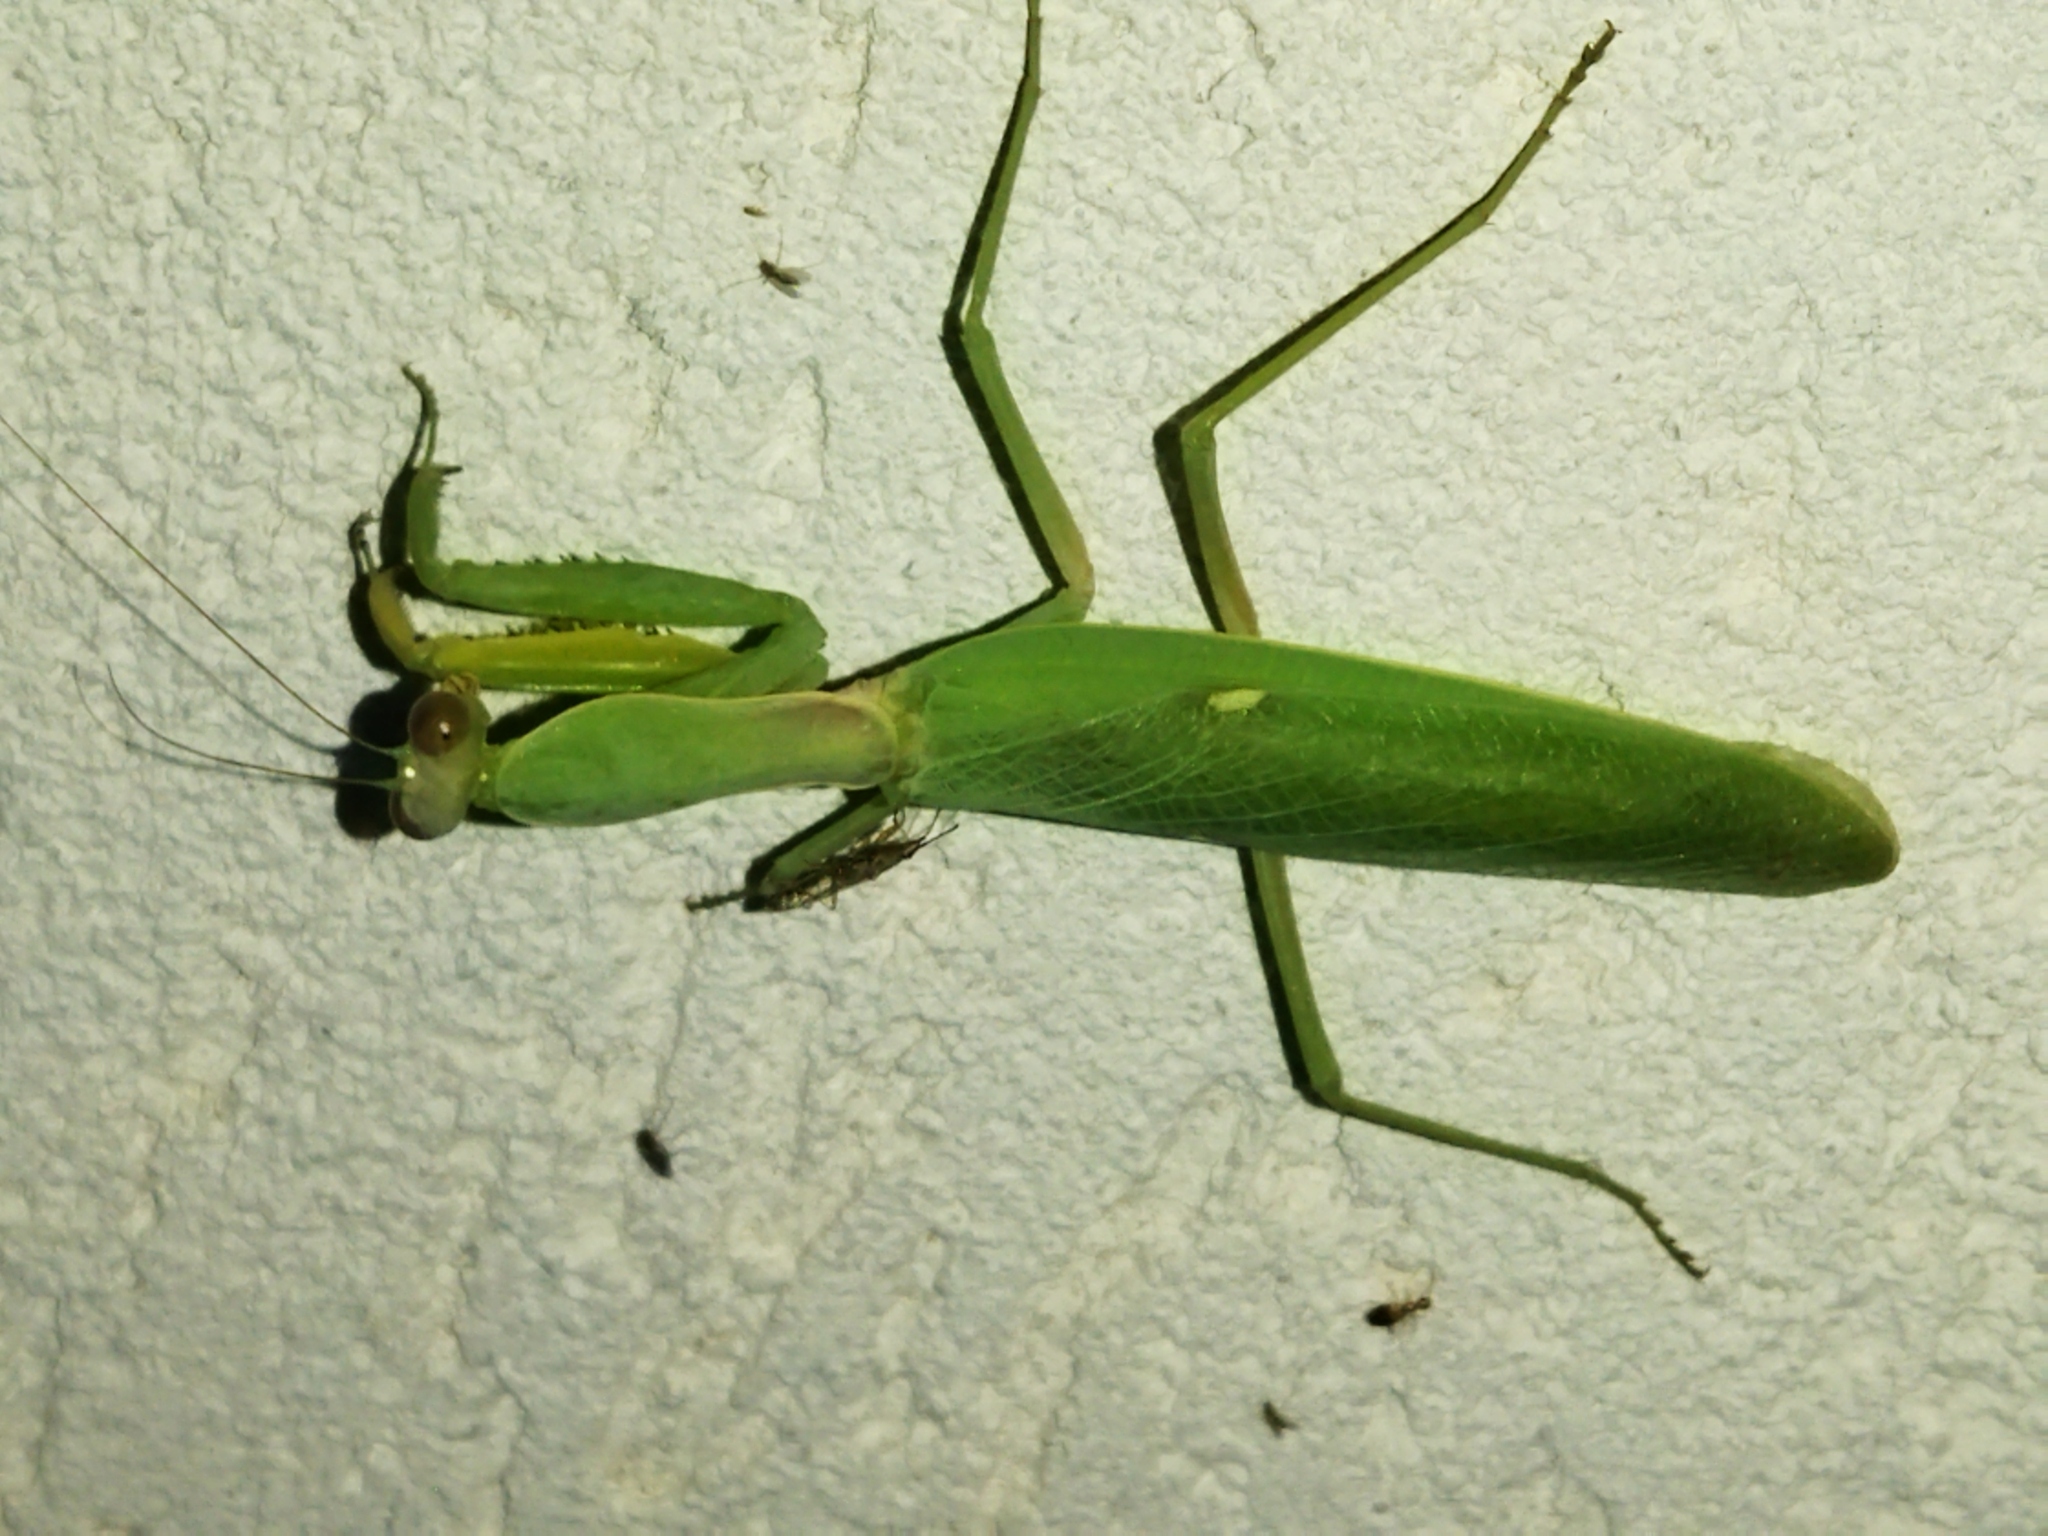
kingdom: Animalia
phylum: Arthropoda
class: Insecta
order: Mantodea
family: Mantidae
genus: Hierodula
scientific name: Hierodula transcaucasica
